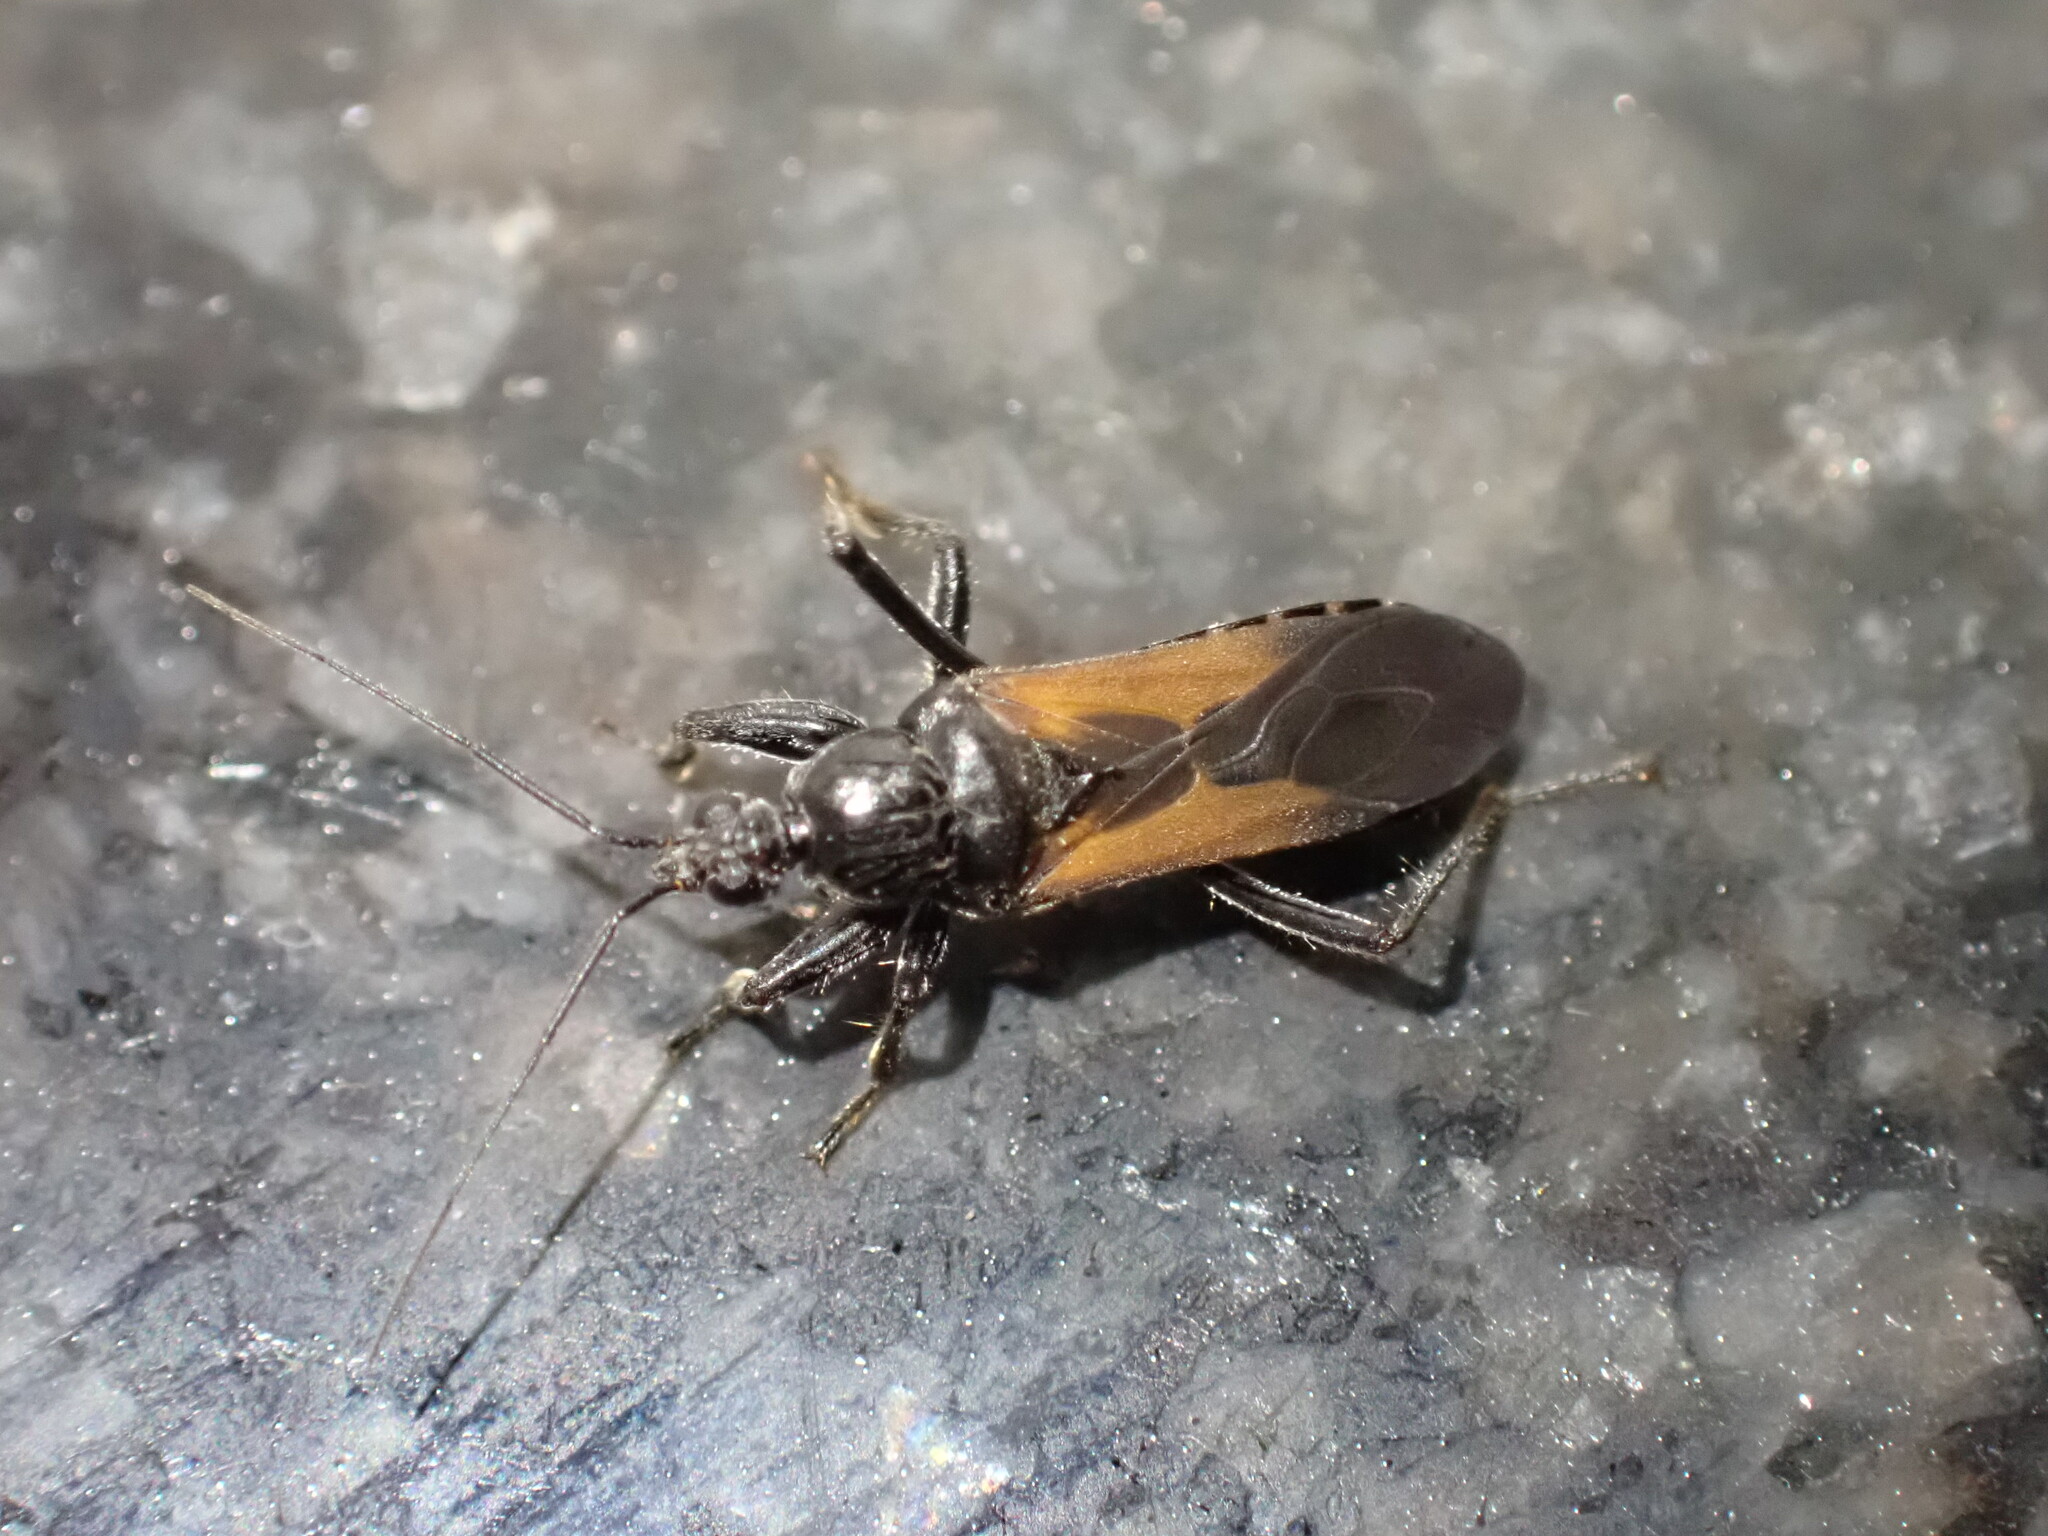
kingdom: Animalia
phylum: Arthropoda
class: Insecta
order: Hemiptera
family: Reduviidae
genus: Peirates
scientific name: Peirates dimidiatus
